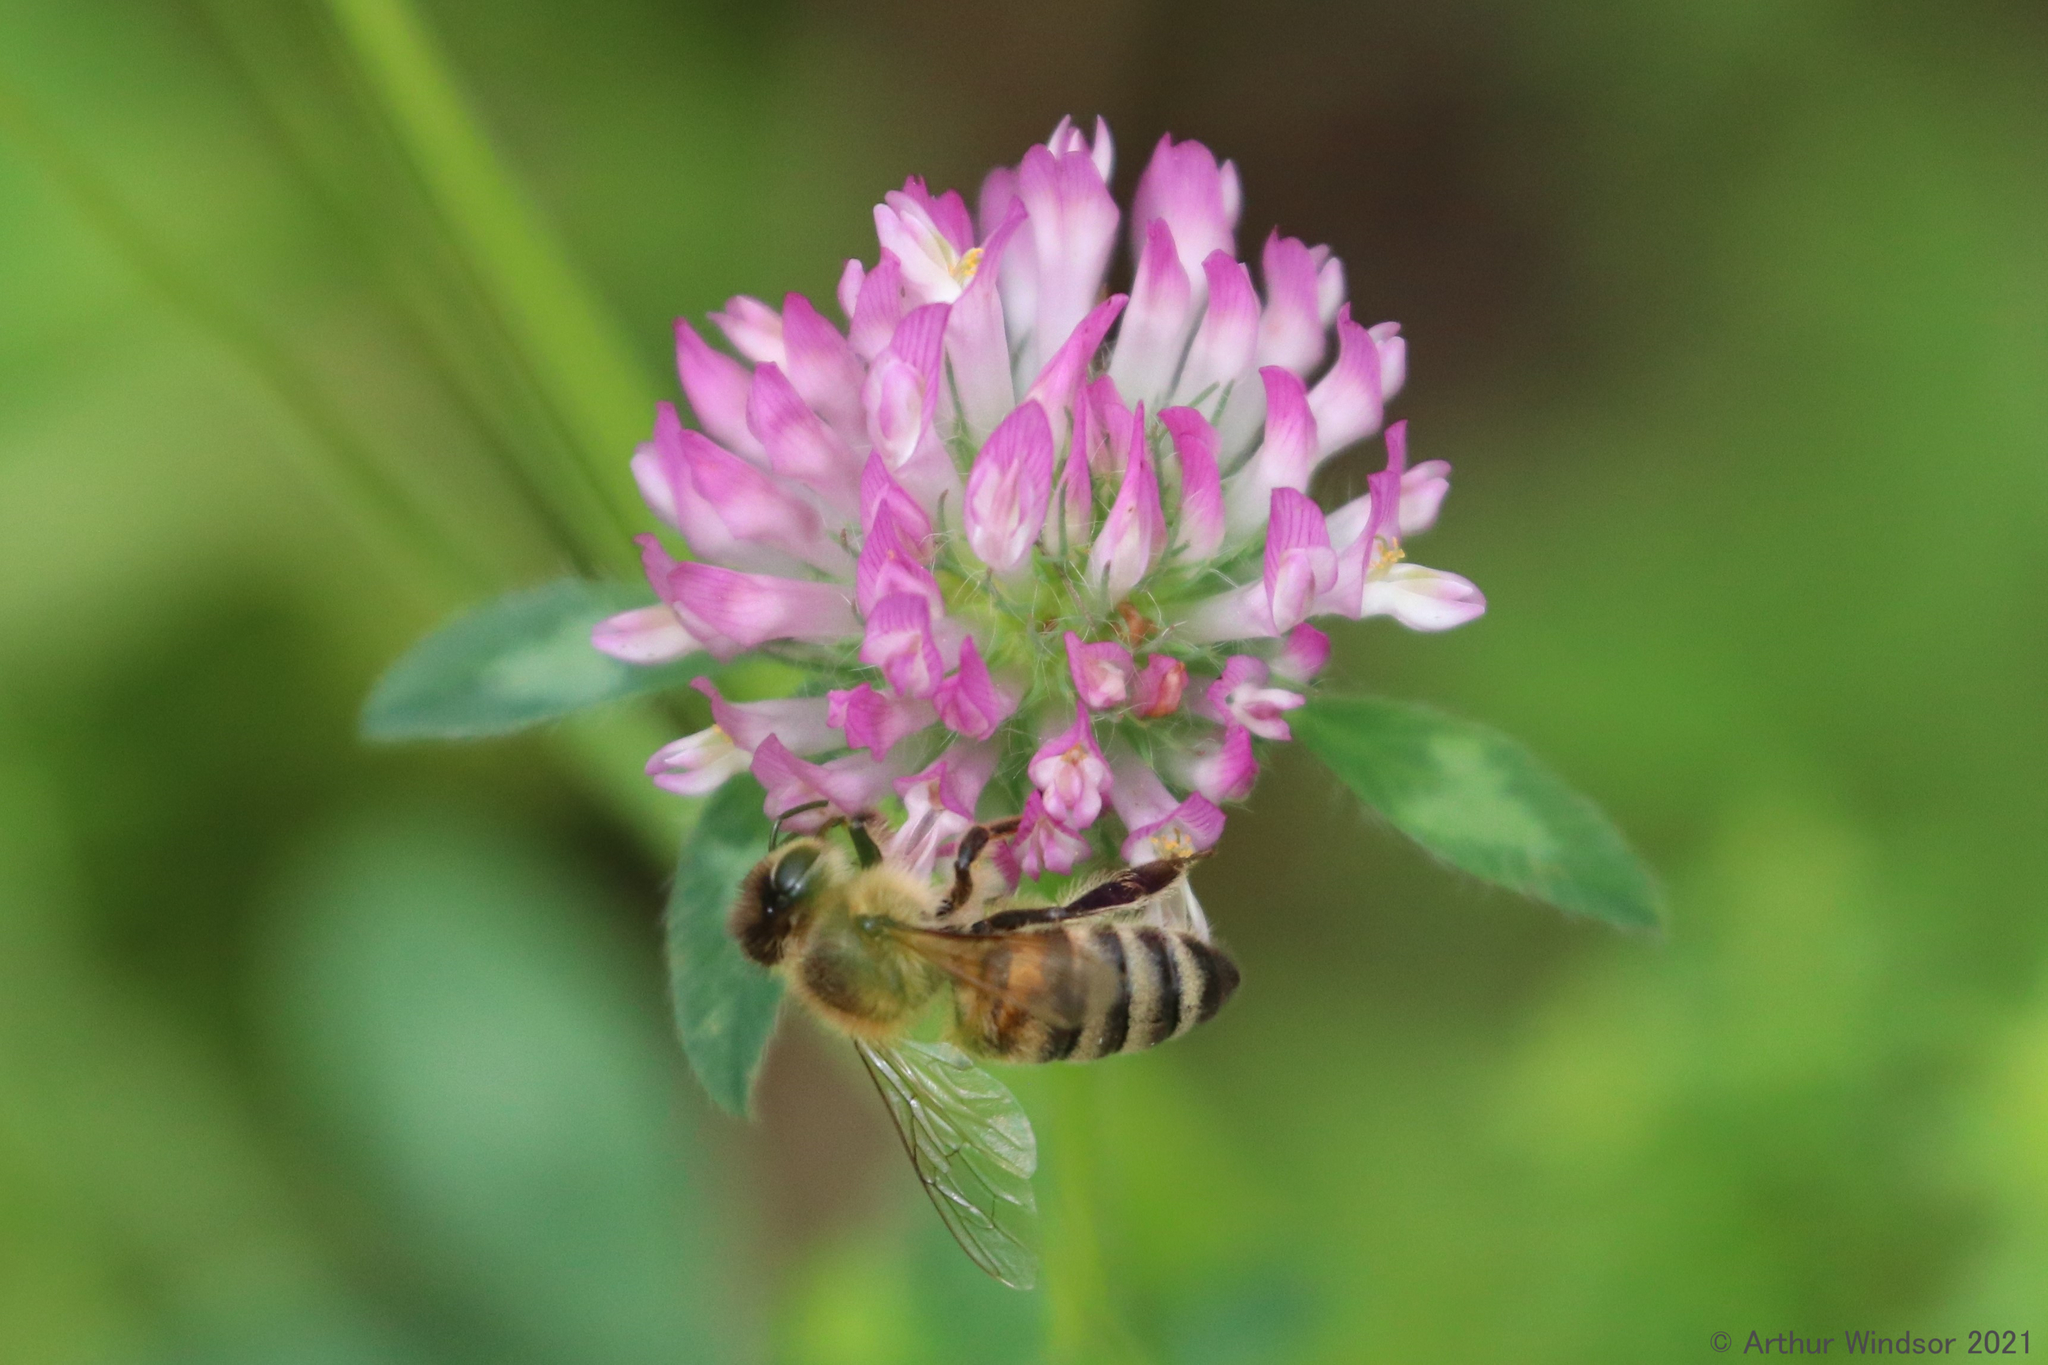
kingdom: Animalia
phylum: Arthropoda
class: Insecta
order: Hymenoptera
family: Apidae
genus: Apis
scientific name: Apis mellifera
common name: Honey bee
